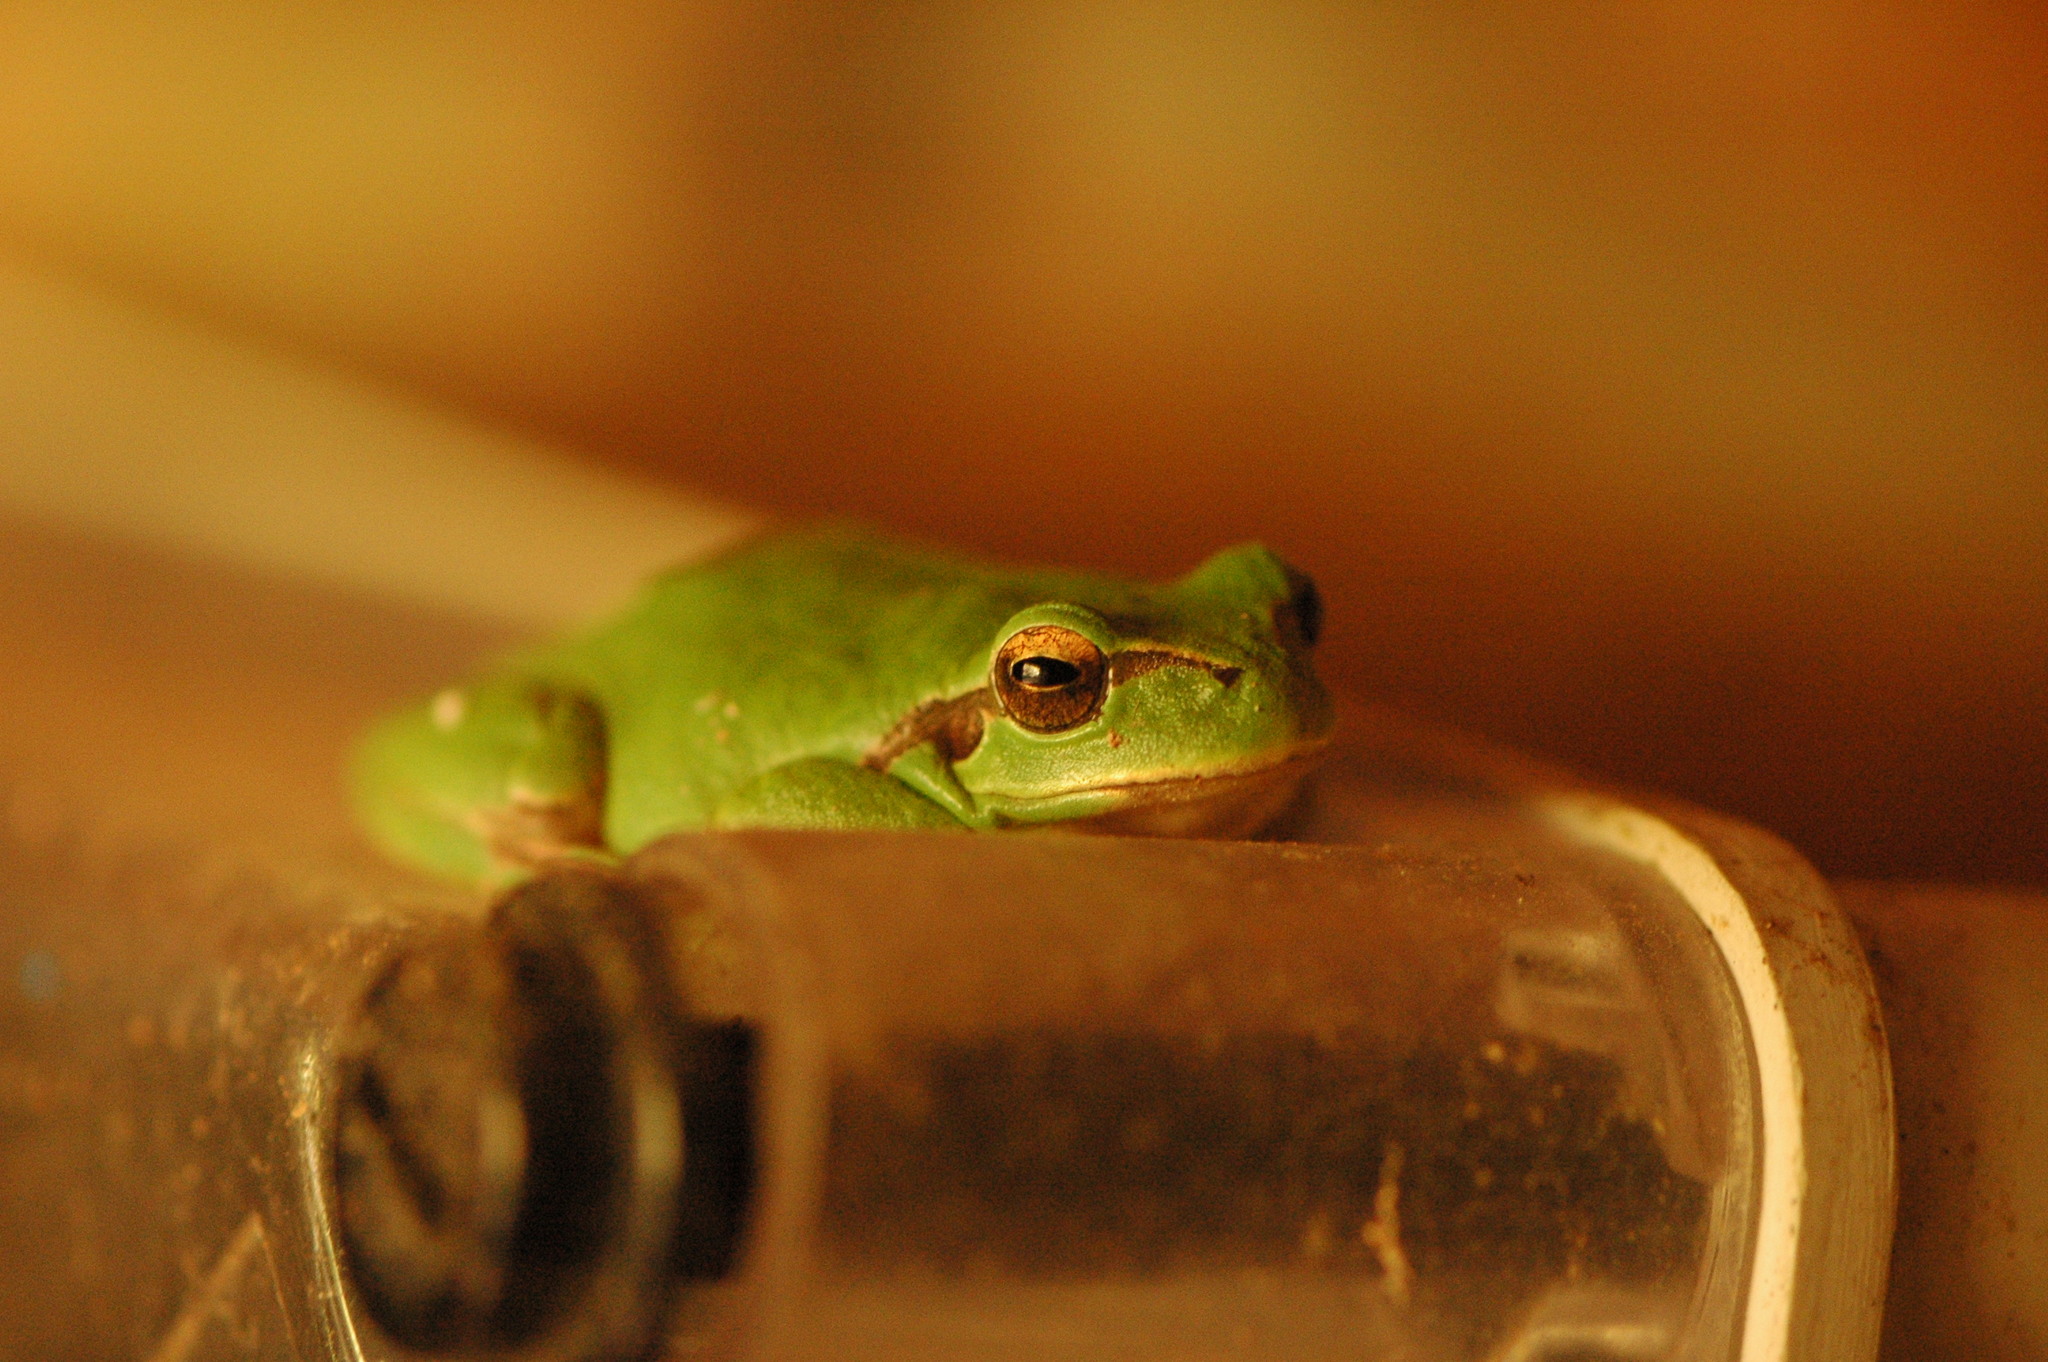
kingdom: Animalia
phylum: Chordata
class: Amphibia
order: Anura
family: Hylidae
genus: Hyla
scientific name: Hyla meridionalis
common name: Stripeless tree frog
